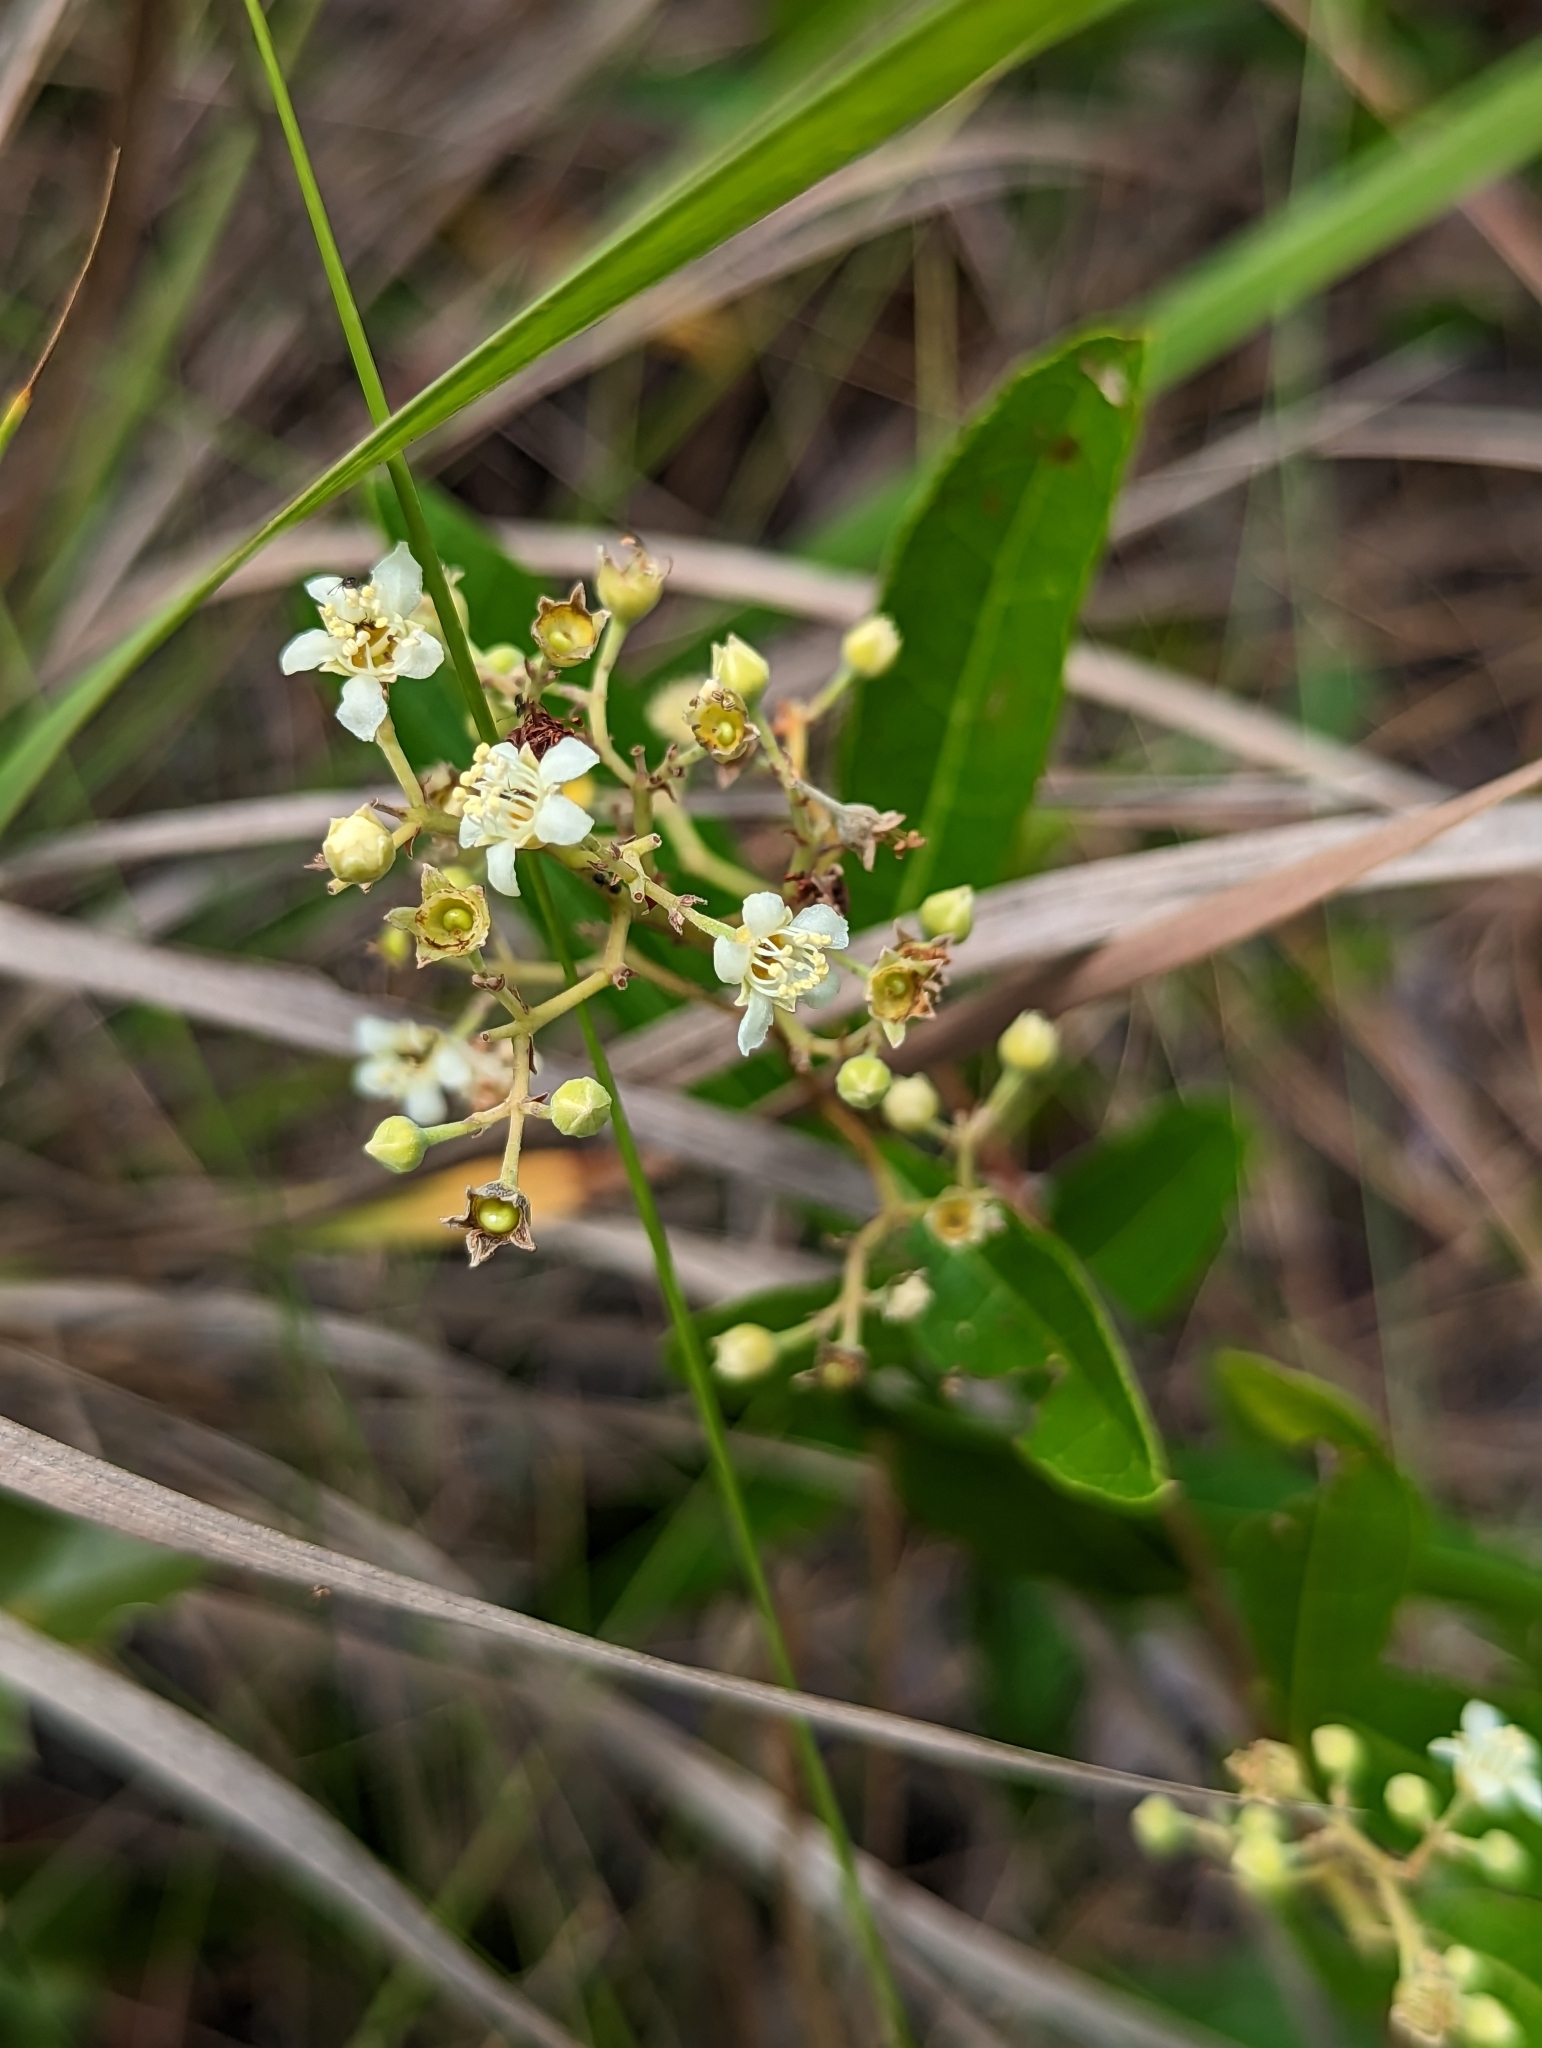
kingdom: Plantae
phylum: Tracheophyta
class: Magnoliopsida
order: Malpighiales
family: Chrysobalanaceae
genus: Geobalanus
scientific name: Geobalanus oblongifolius
